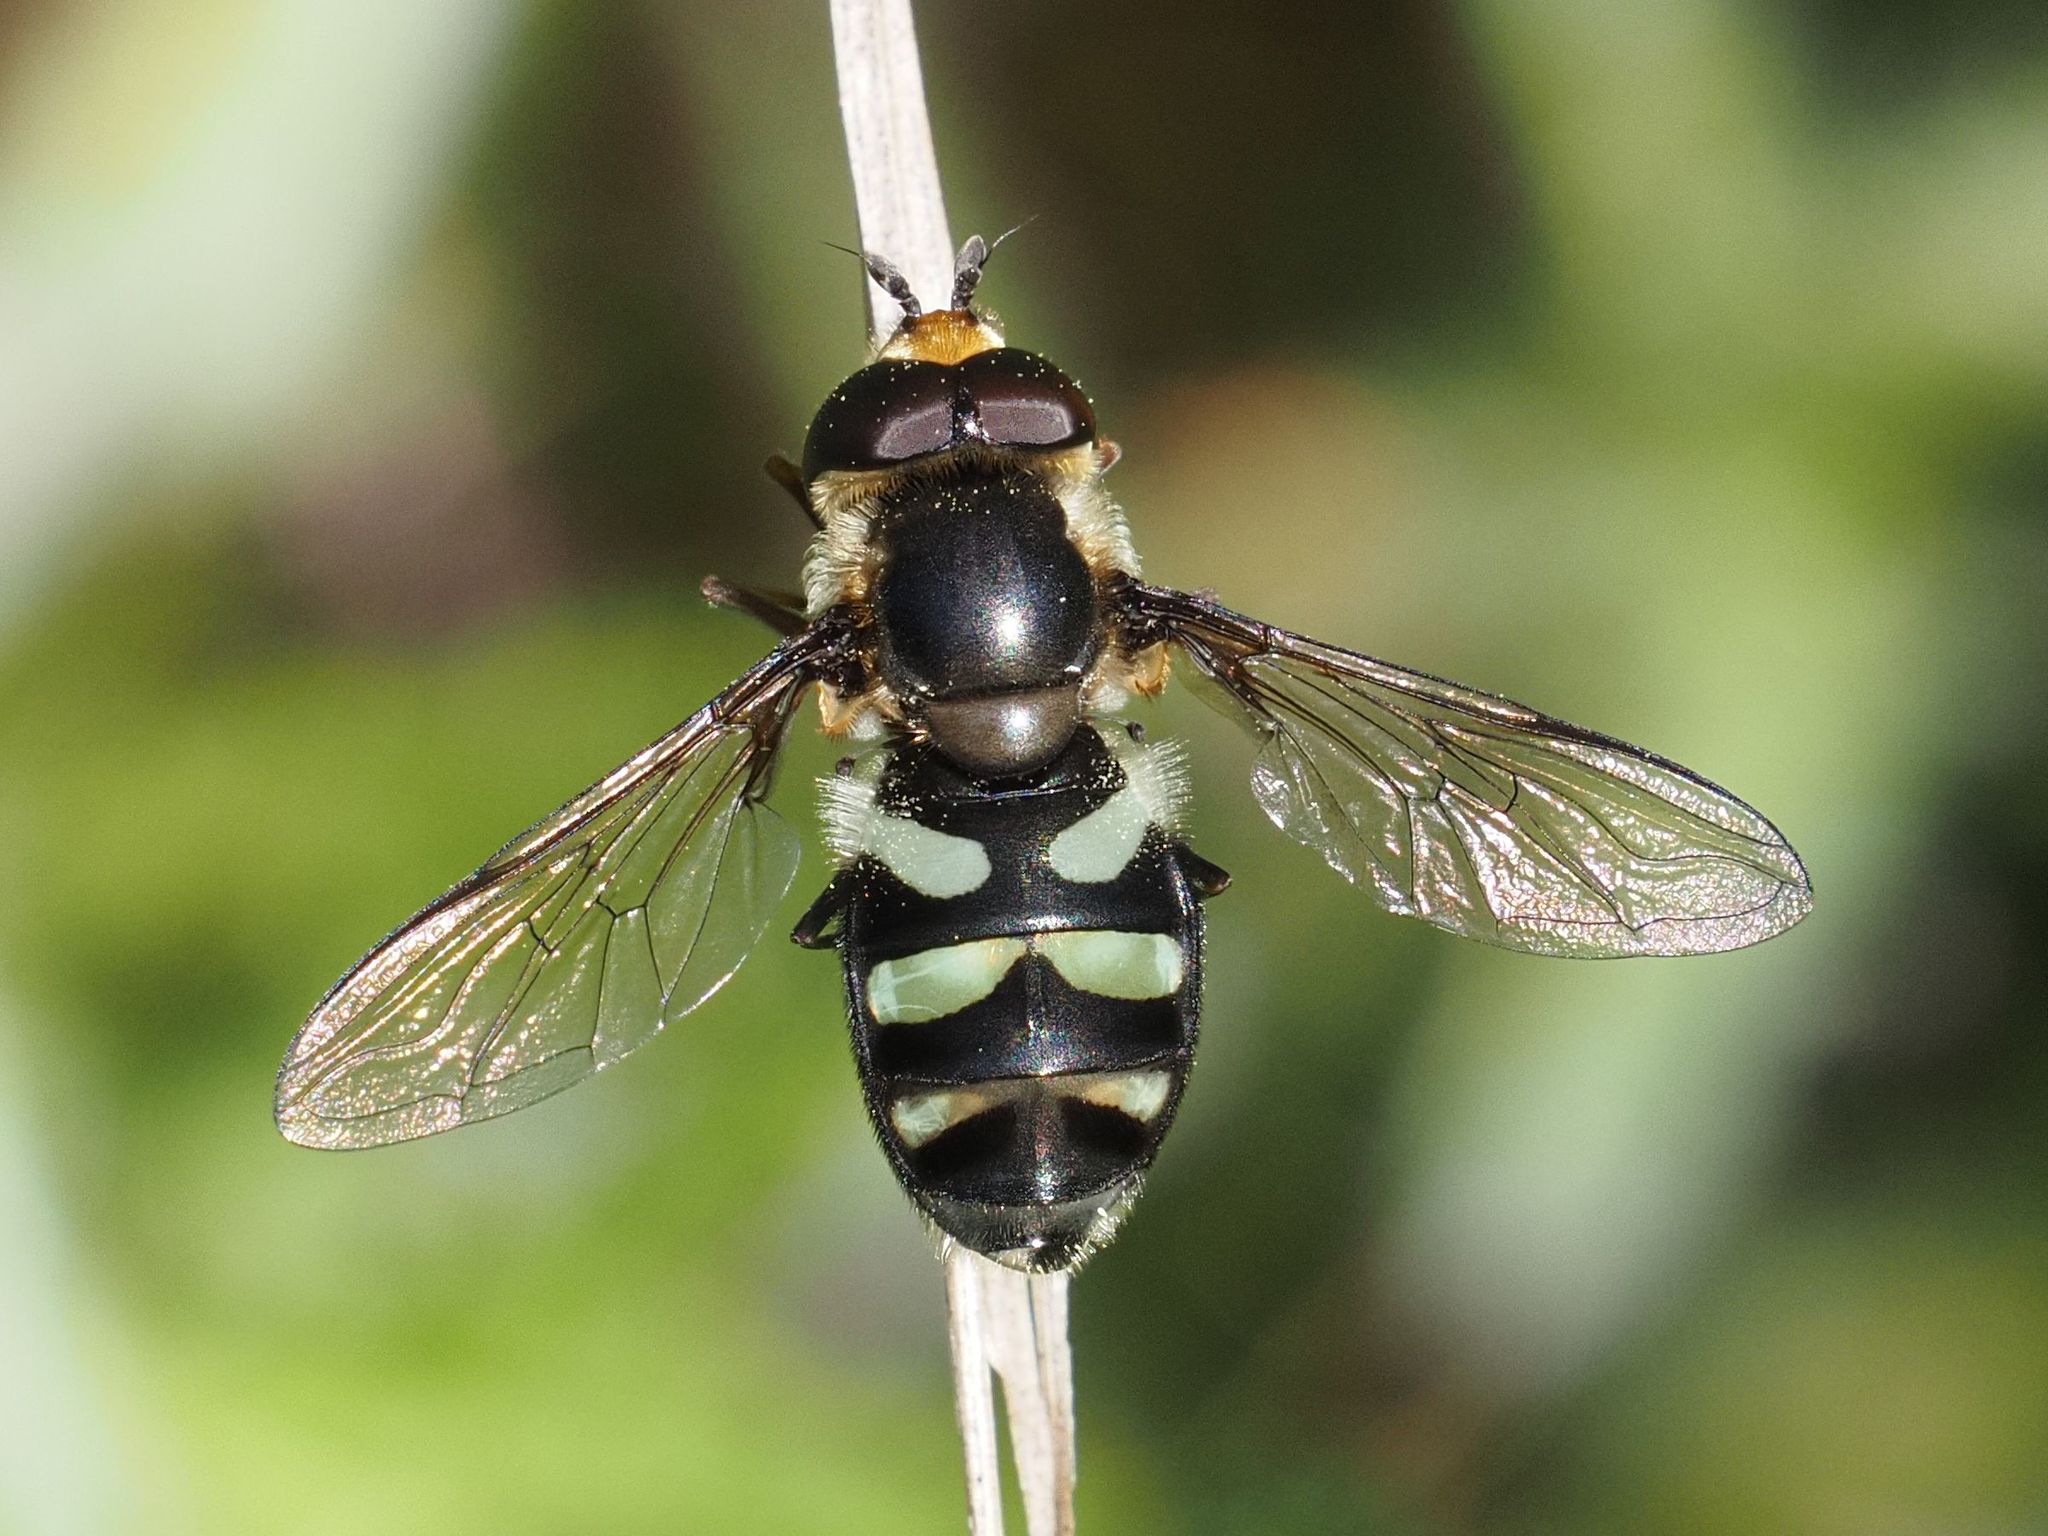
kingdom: Animalia
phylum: Arthropoda
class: Insecta
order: Diptera
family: Syrphidae
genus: Didea
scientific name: Didea alneti
